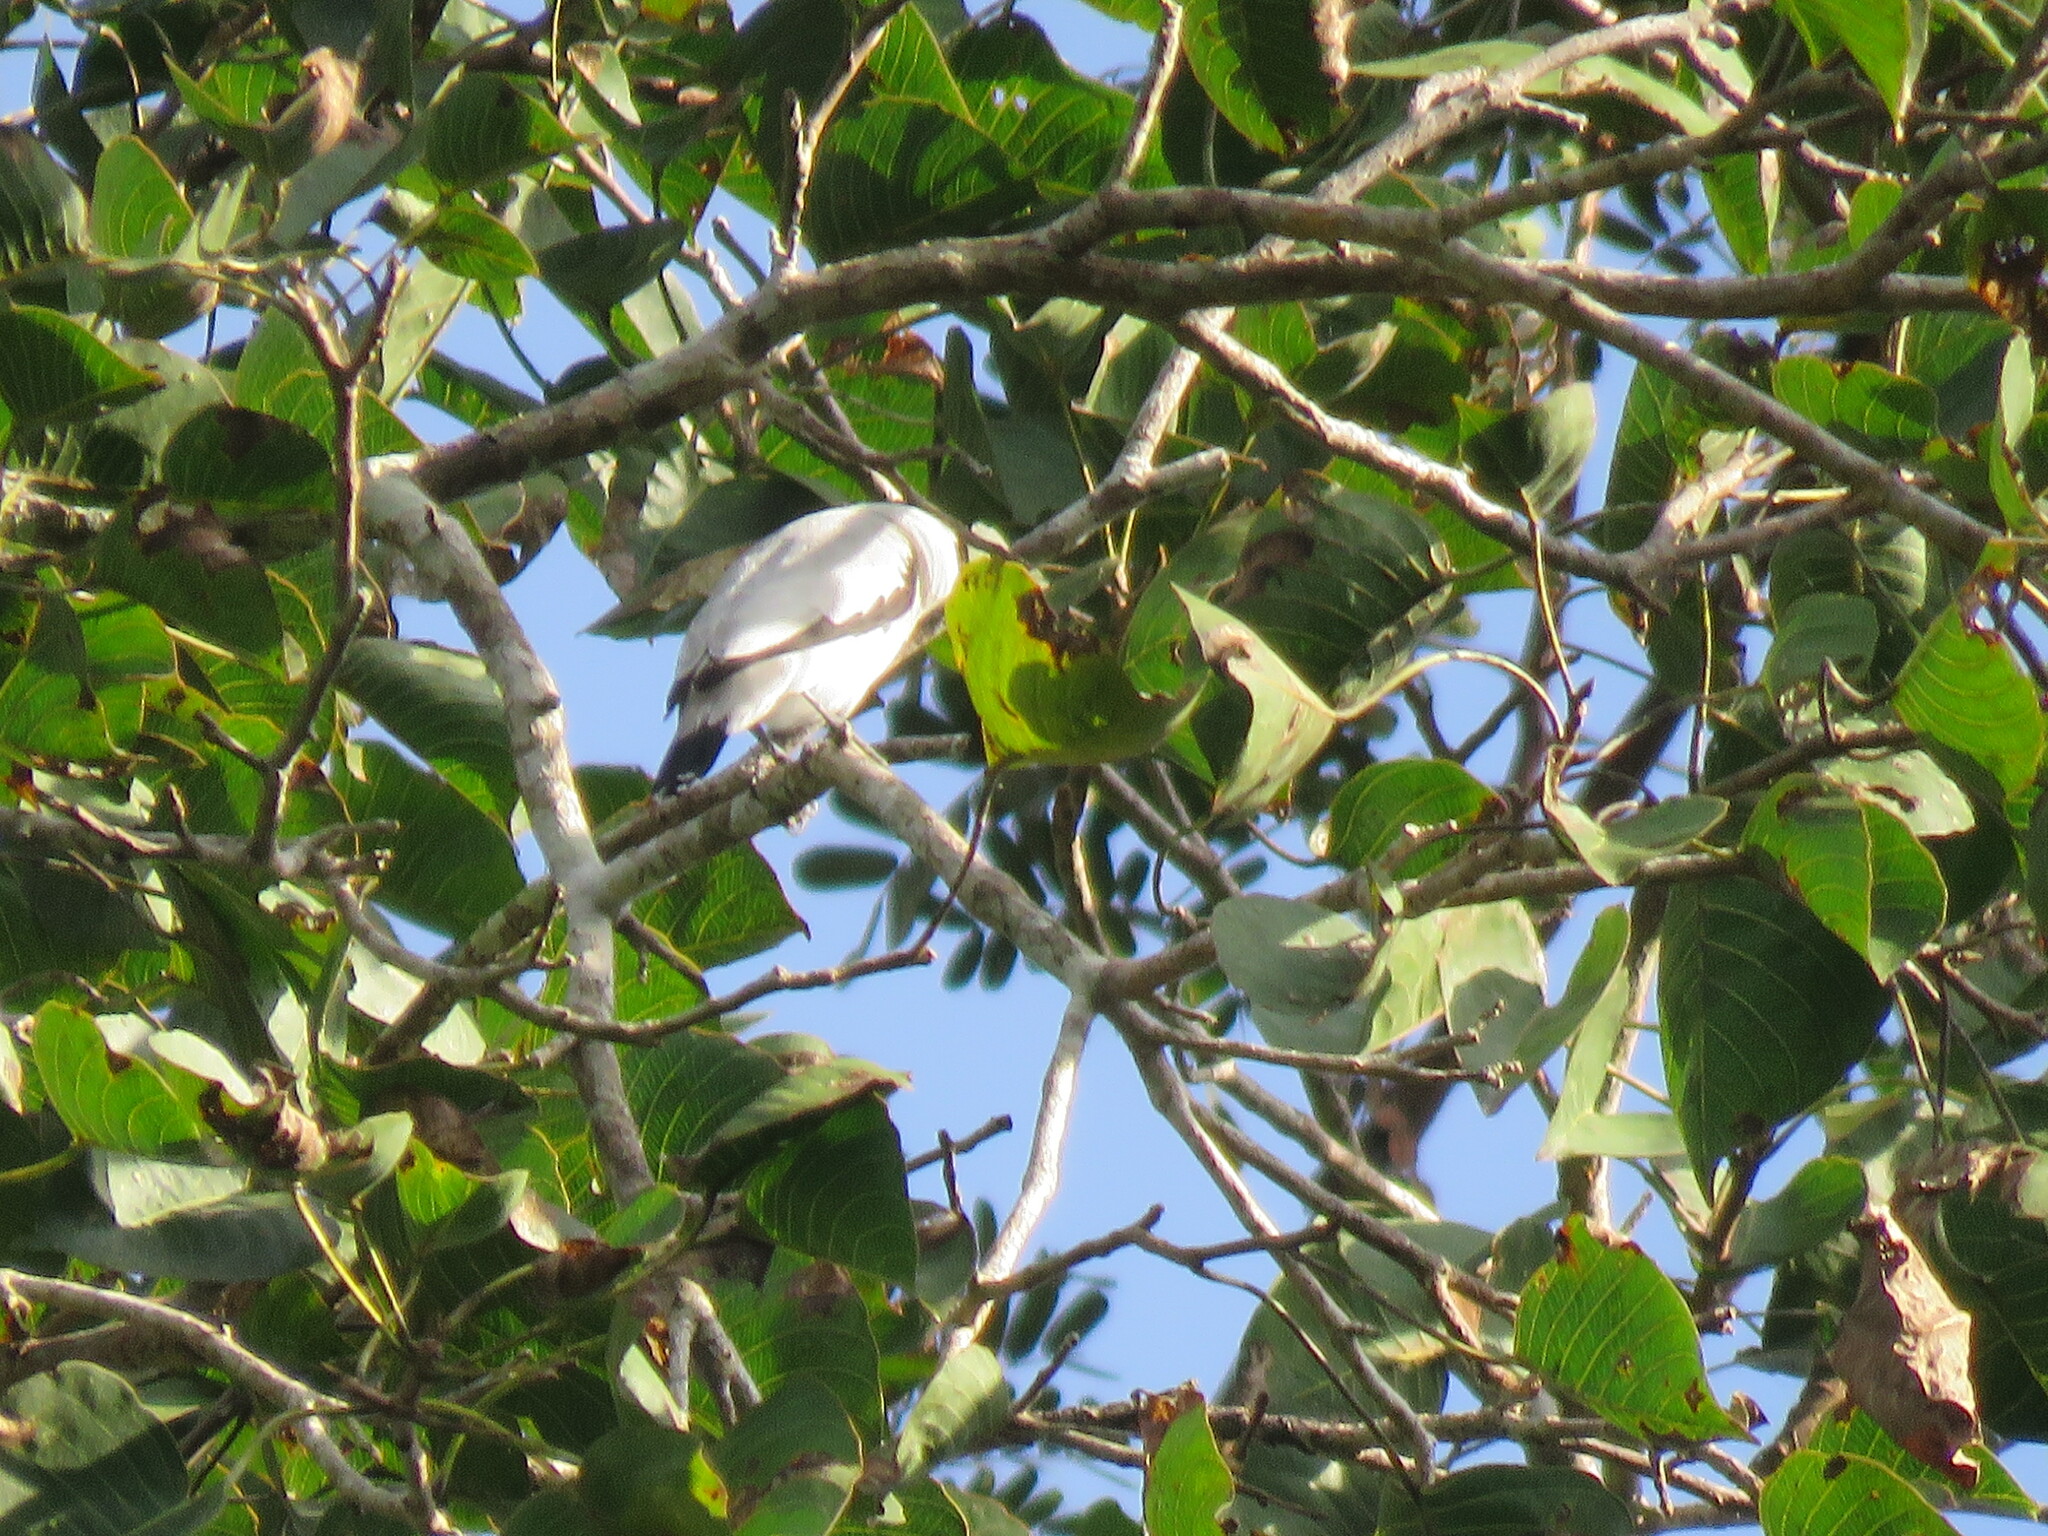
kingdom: Animalia
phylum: Chordata
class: Aves
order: Passeriformes
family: Cotingidae
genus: Tityra
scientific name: Tityra inquisitor
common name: Black-crowned tityra
